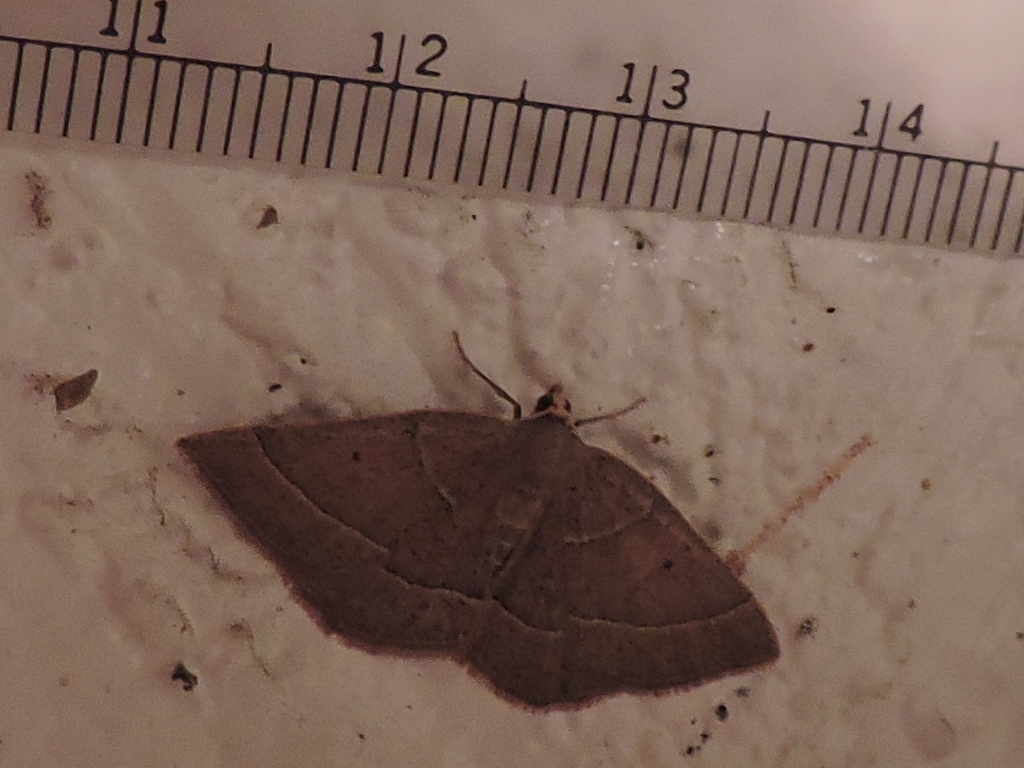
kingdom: Animalia
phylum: Arthropoda
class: Insecta
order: Lepidoptera
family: Geometridae
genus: Episemasia
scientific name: Episemasia cervinaria
